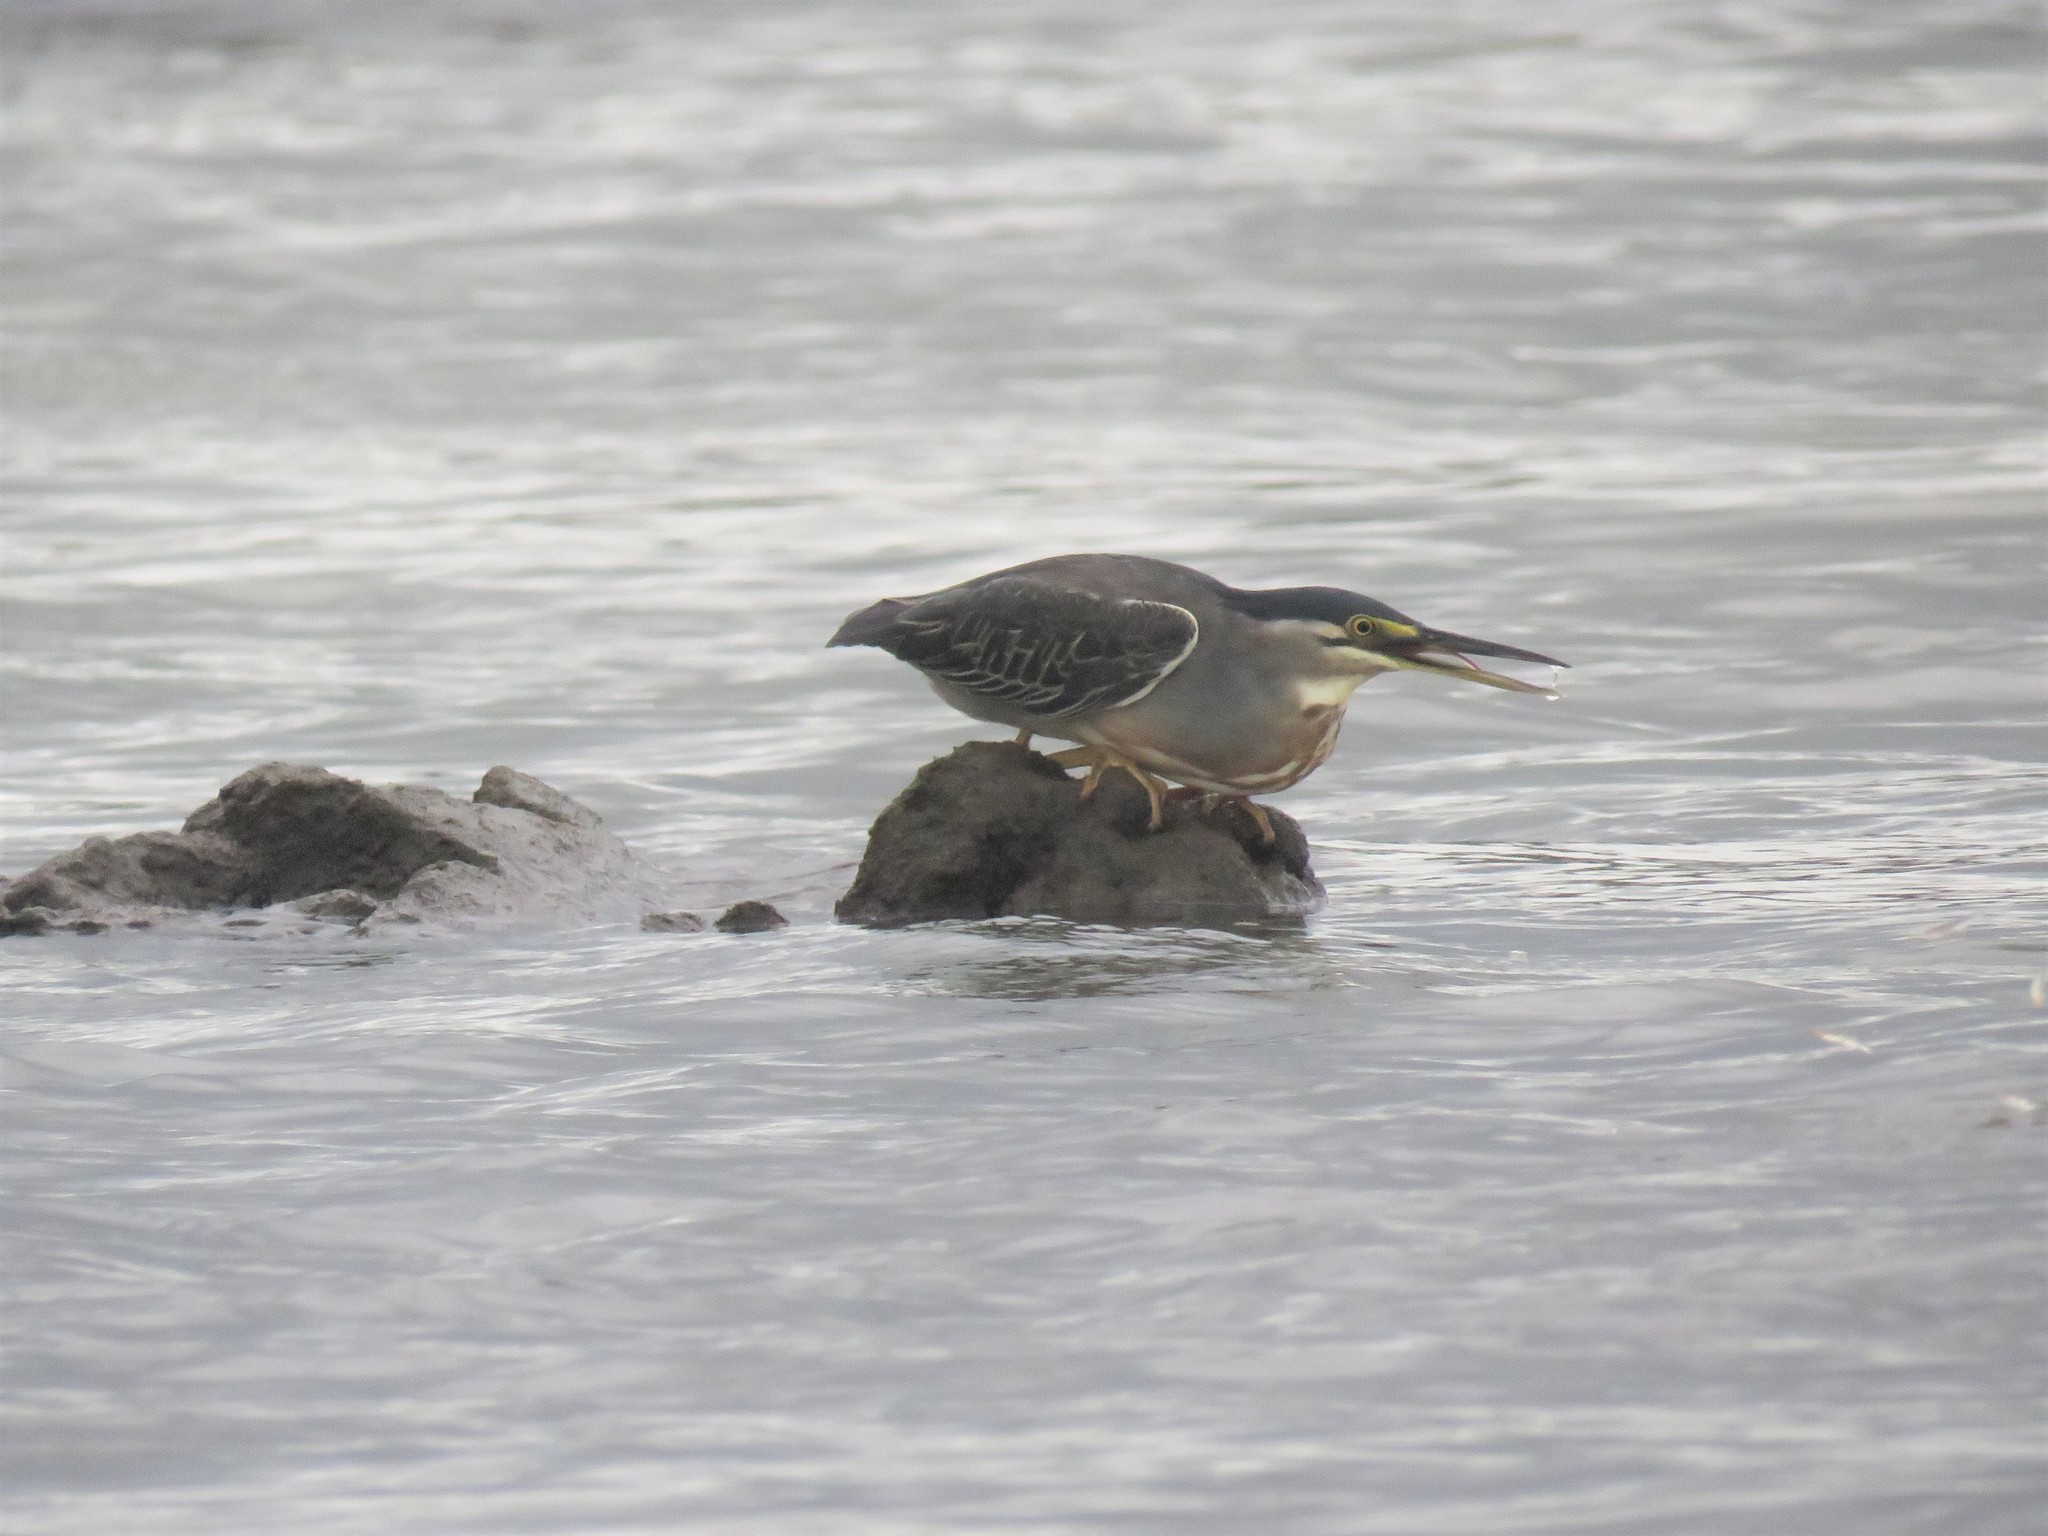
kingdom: Animalia
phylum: Chordata
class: Aves
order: Pelecaniformes
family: Ardeidae
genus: Butorides
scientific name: Butorides striata
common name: Striated heron
